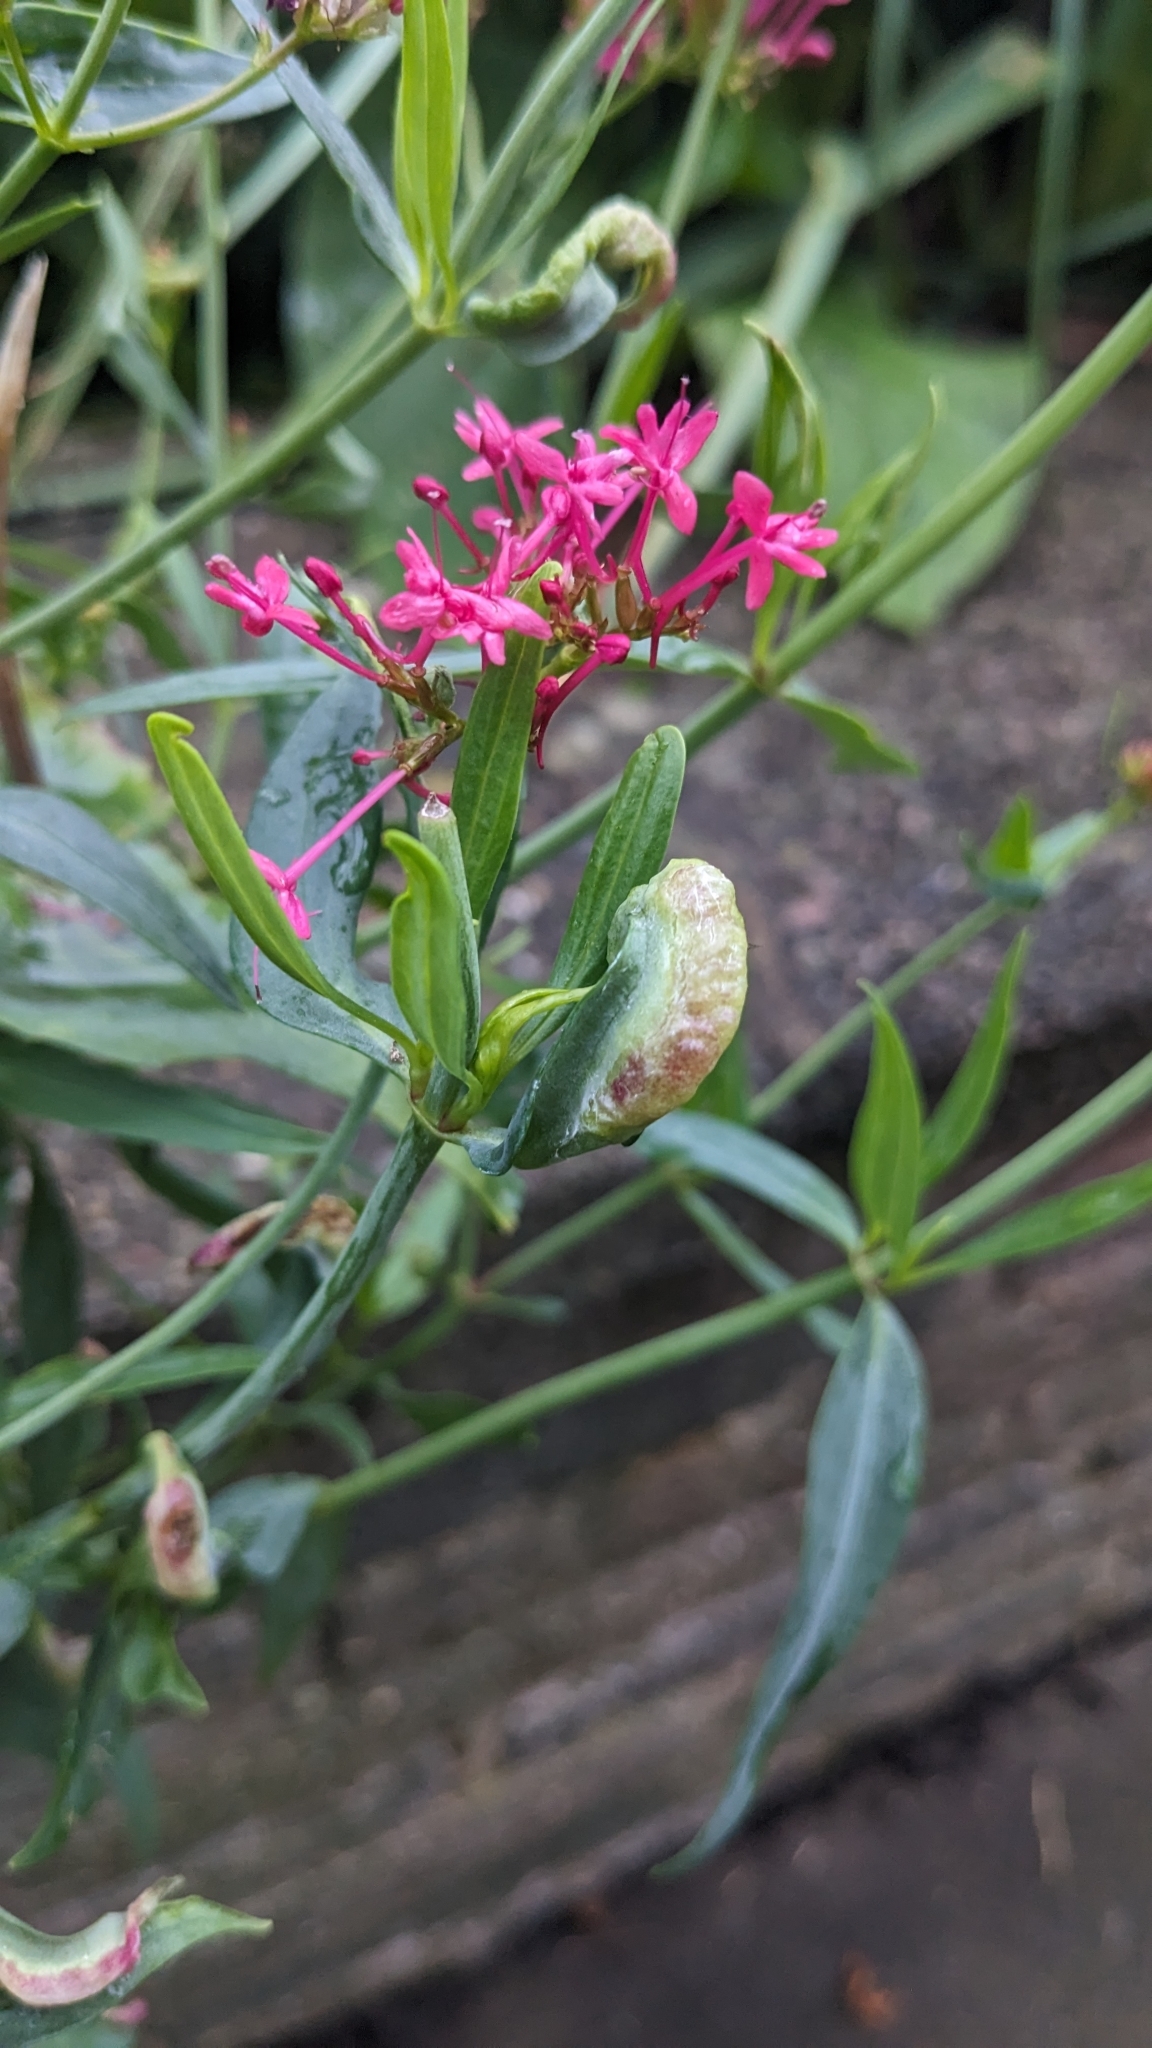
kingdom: Animalia
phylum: Arthropoda
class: Insecta
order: Hemiptera
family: Triozidae
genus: Trioza
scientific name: Trioza centranthi
